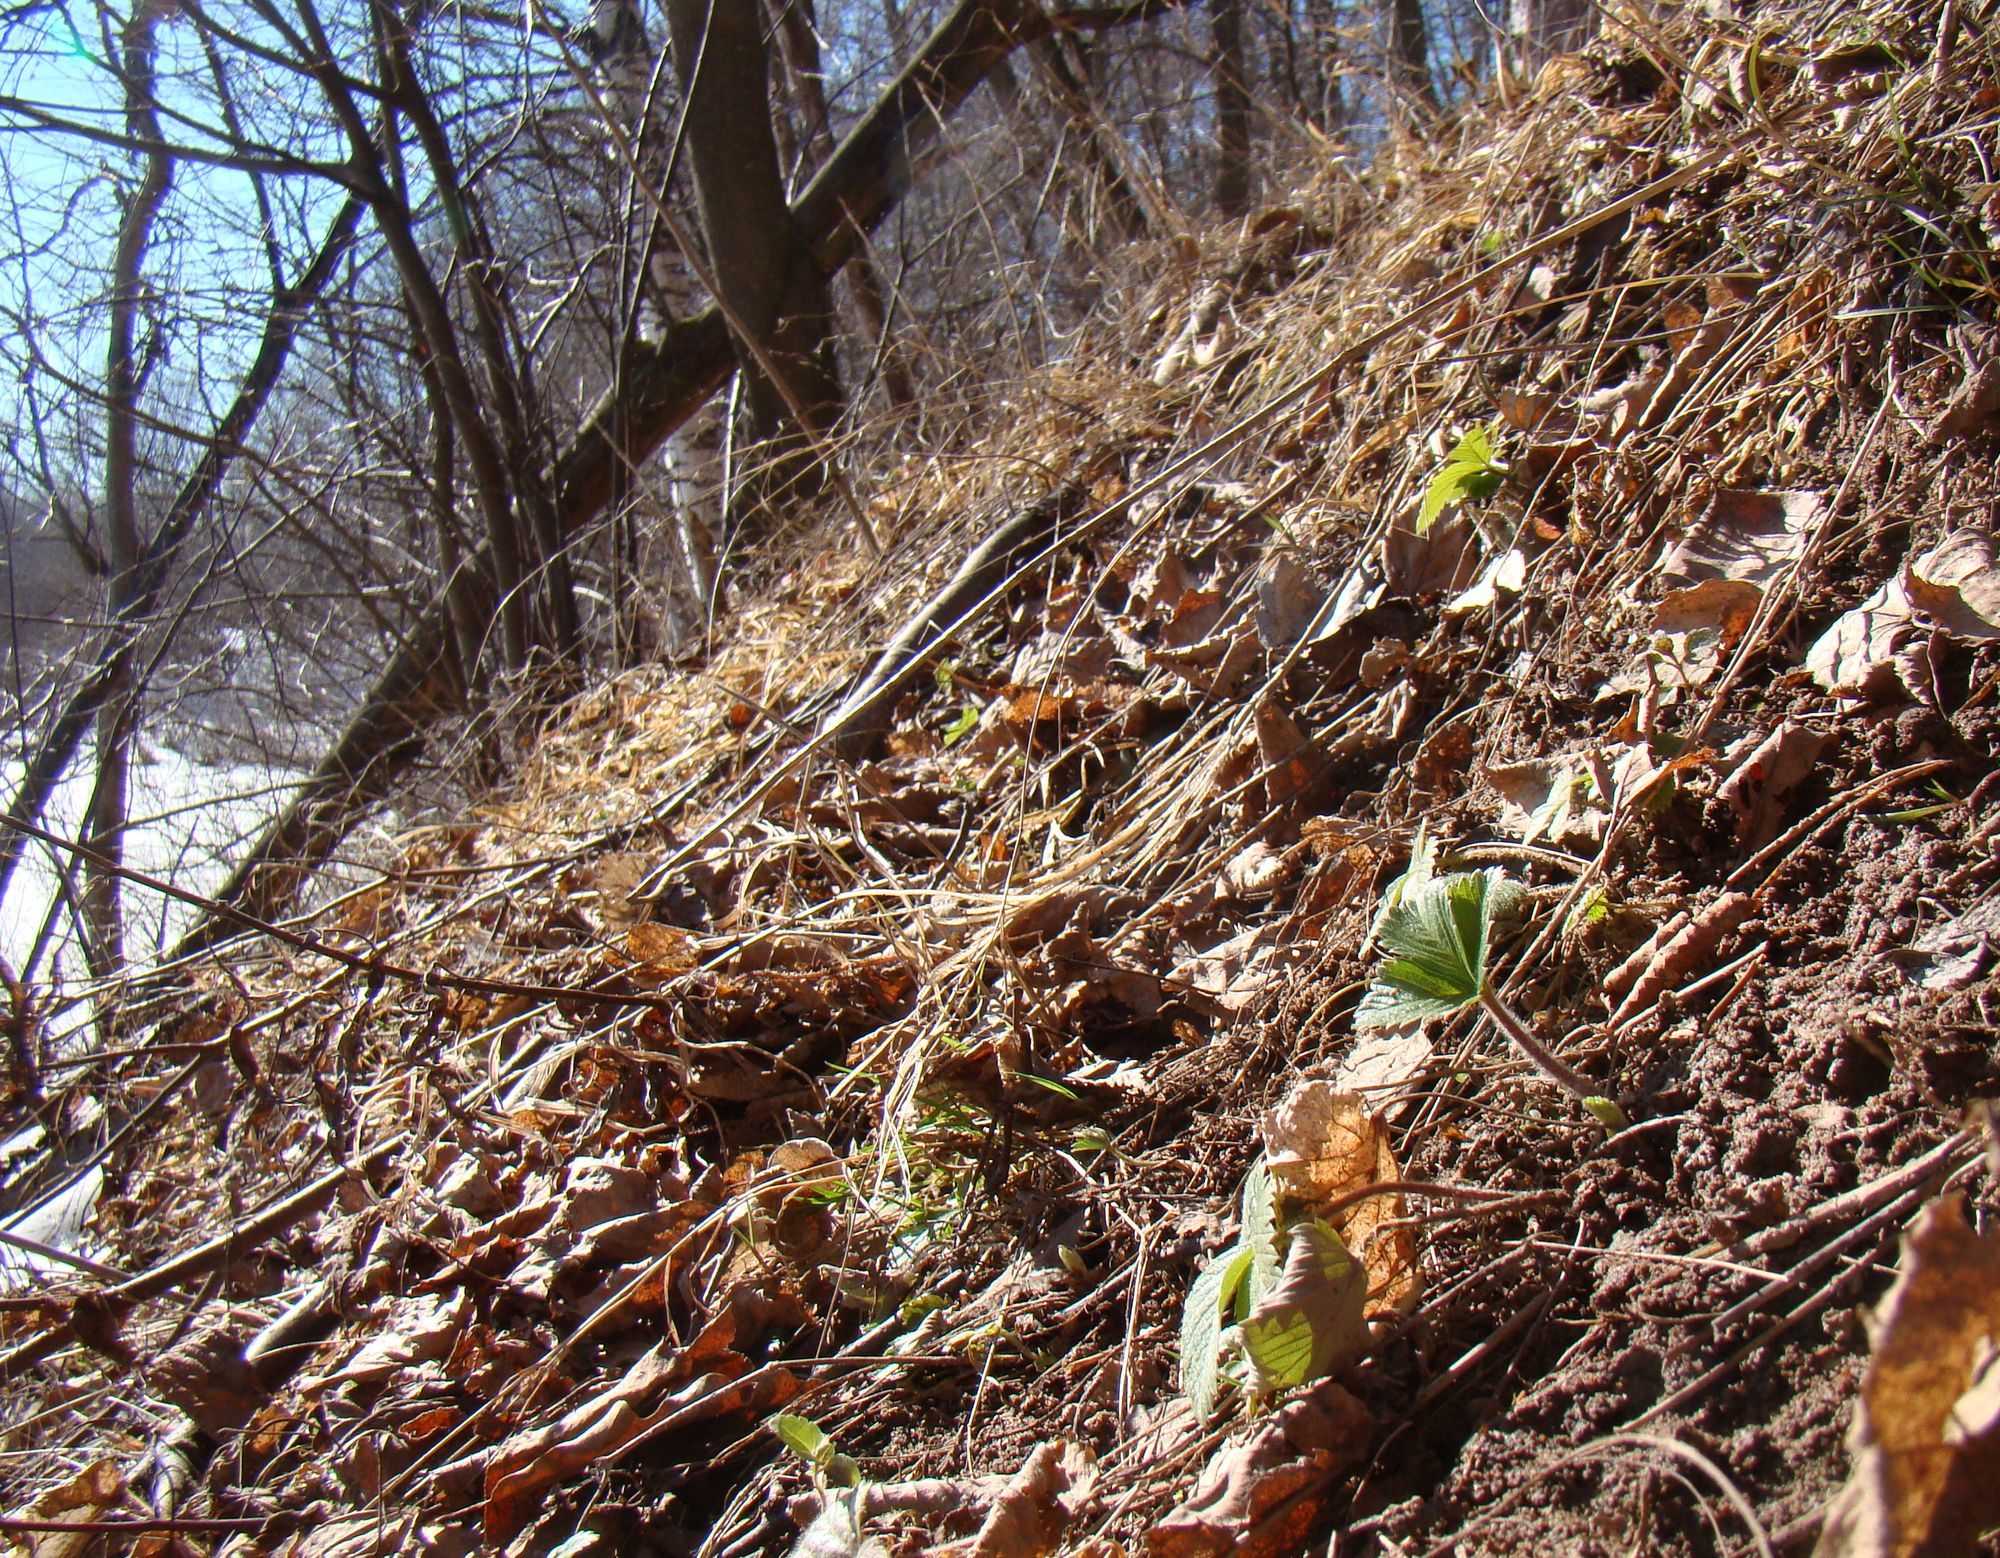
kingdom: Plantae
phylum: Tracheophyta
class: Magnoliopsida
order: Rosales
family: Rosaceae
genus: Fragaria
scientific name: Fragaria vesca
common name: Wild strawberry
